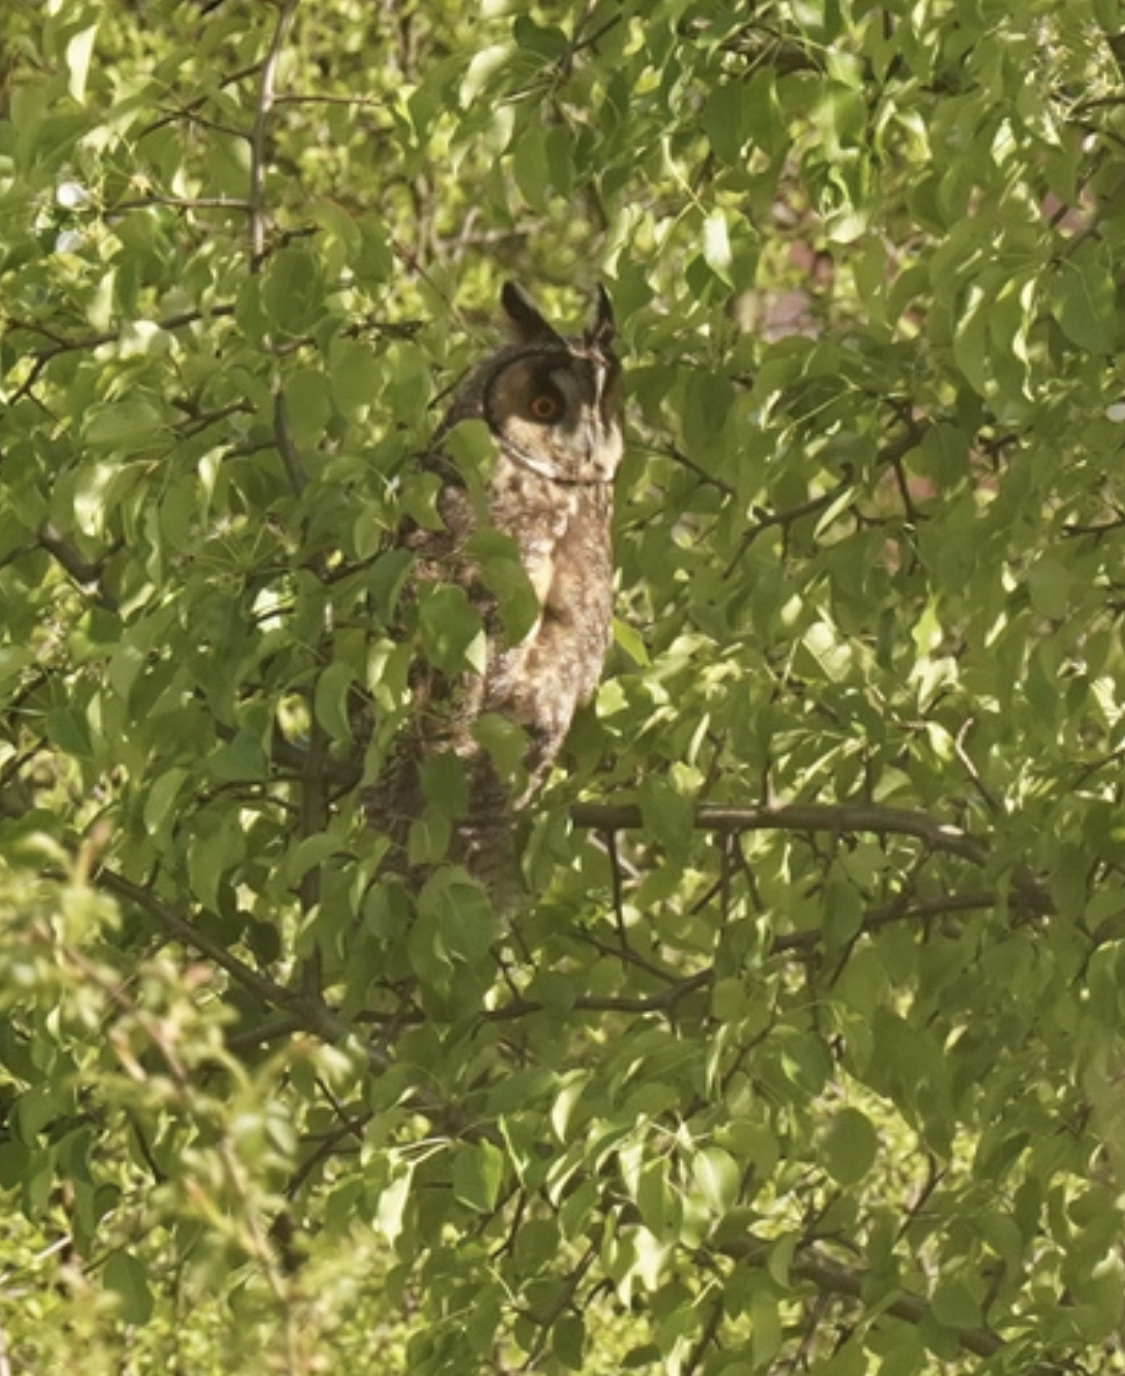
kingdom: Animalia
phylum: Chordata
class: Aves
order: Strigiformes
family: Strigidae
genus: Asio
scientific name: Asio otus
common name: Long-eared owl
